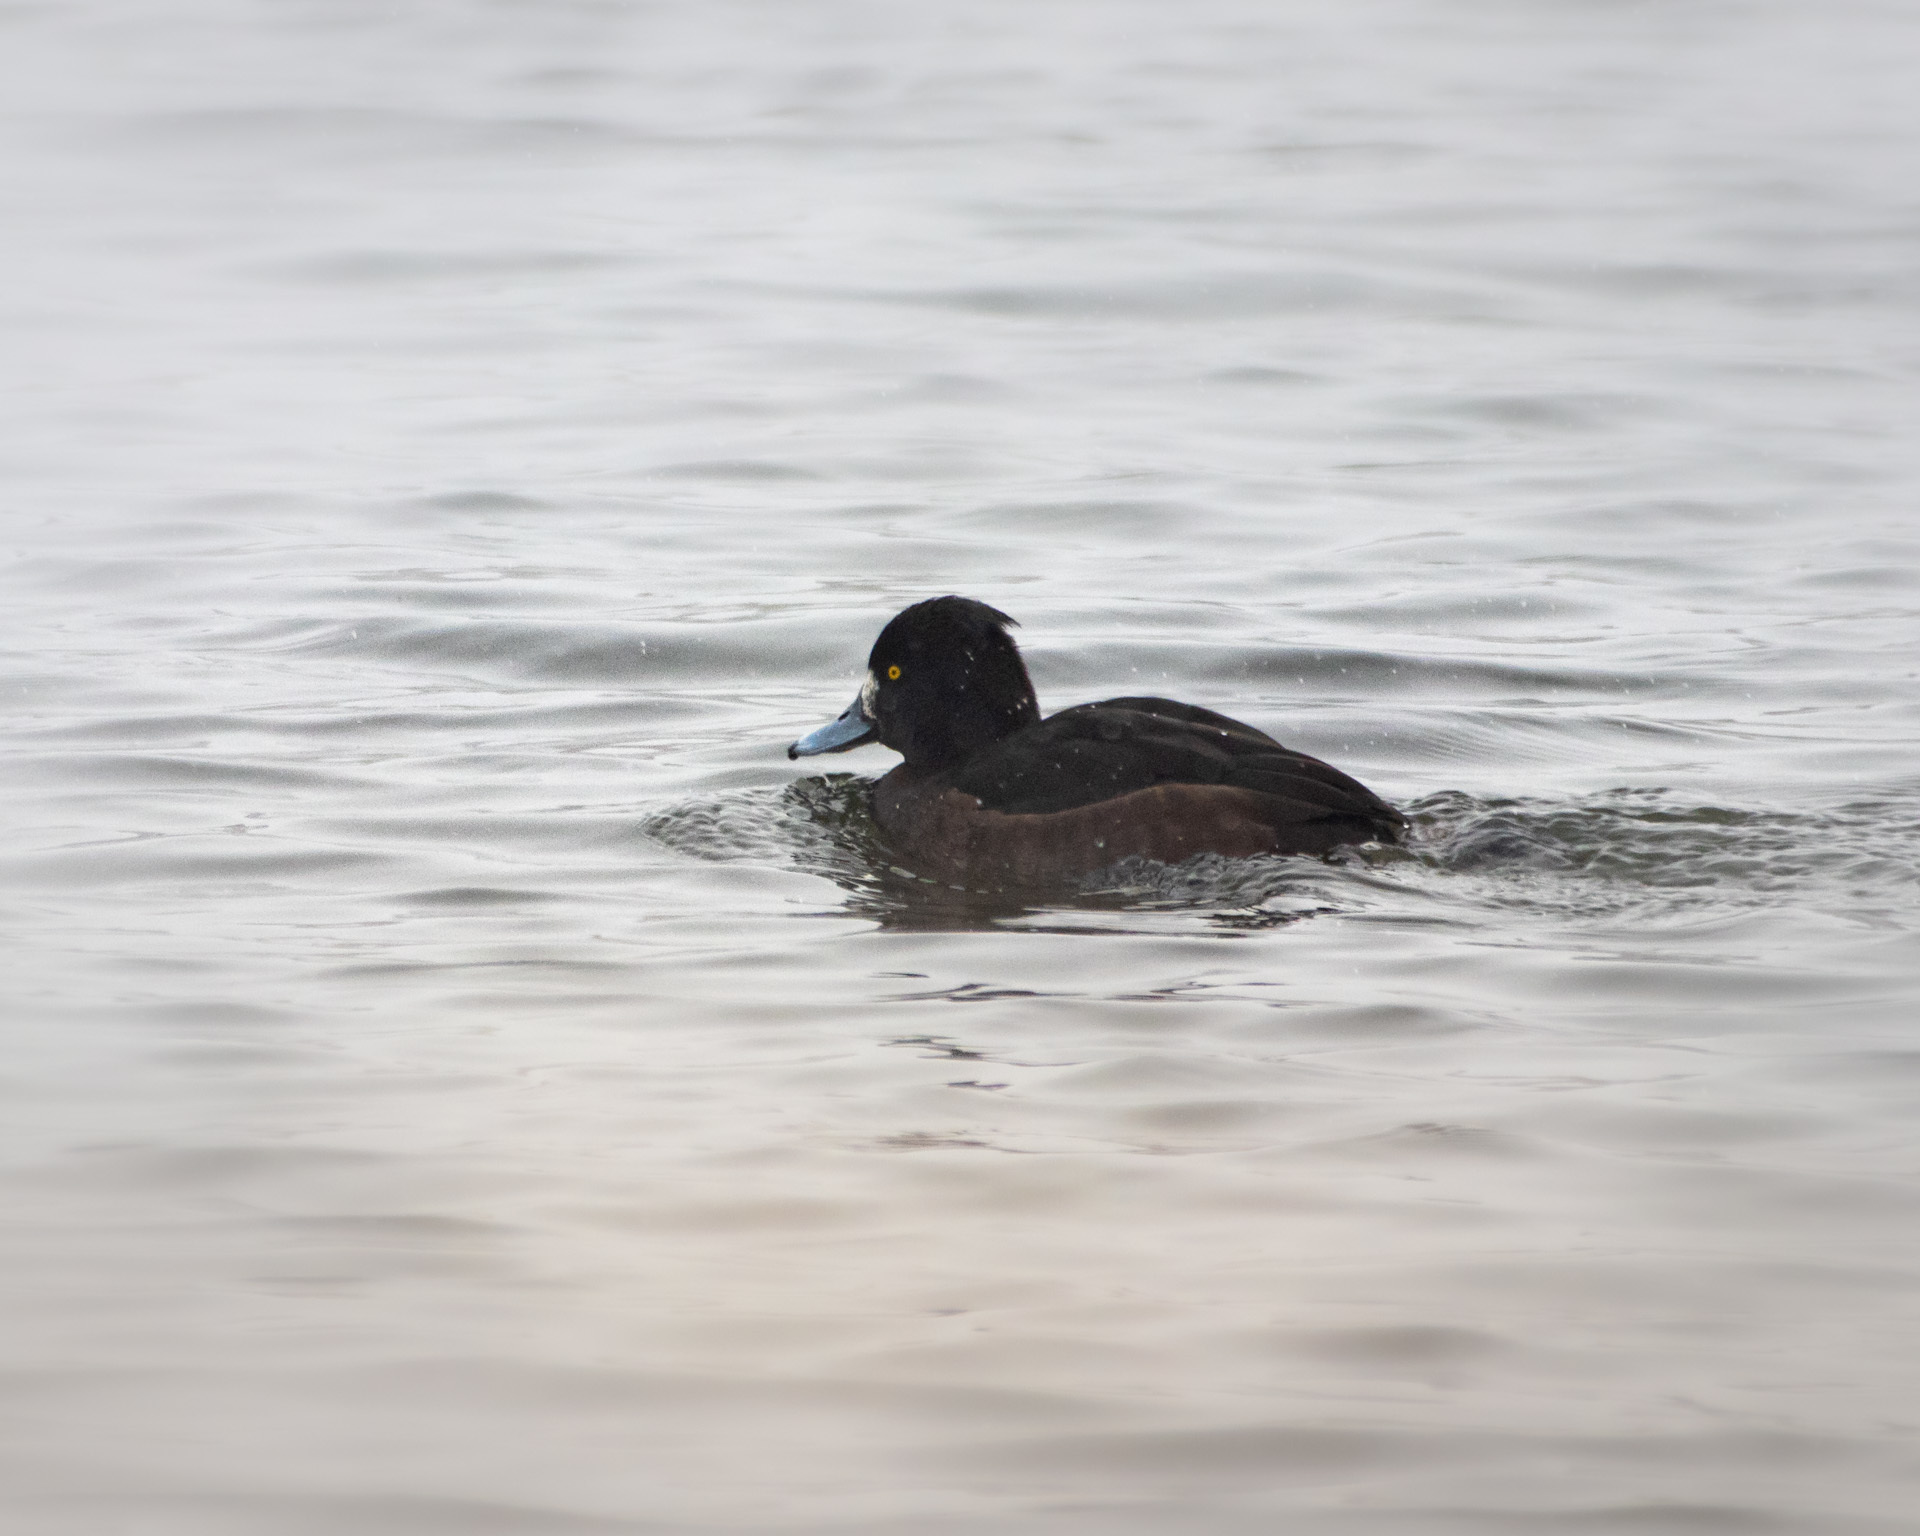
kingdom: Animalia
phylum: Chordata
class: Aves
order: Anseriformes
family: Anatidae
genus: Aythya
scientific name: Aythya fuligula
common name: Tufted duck
